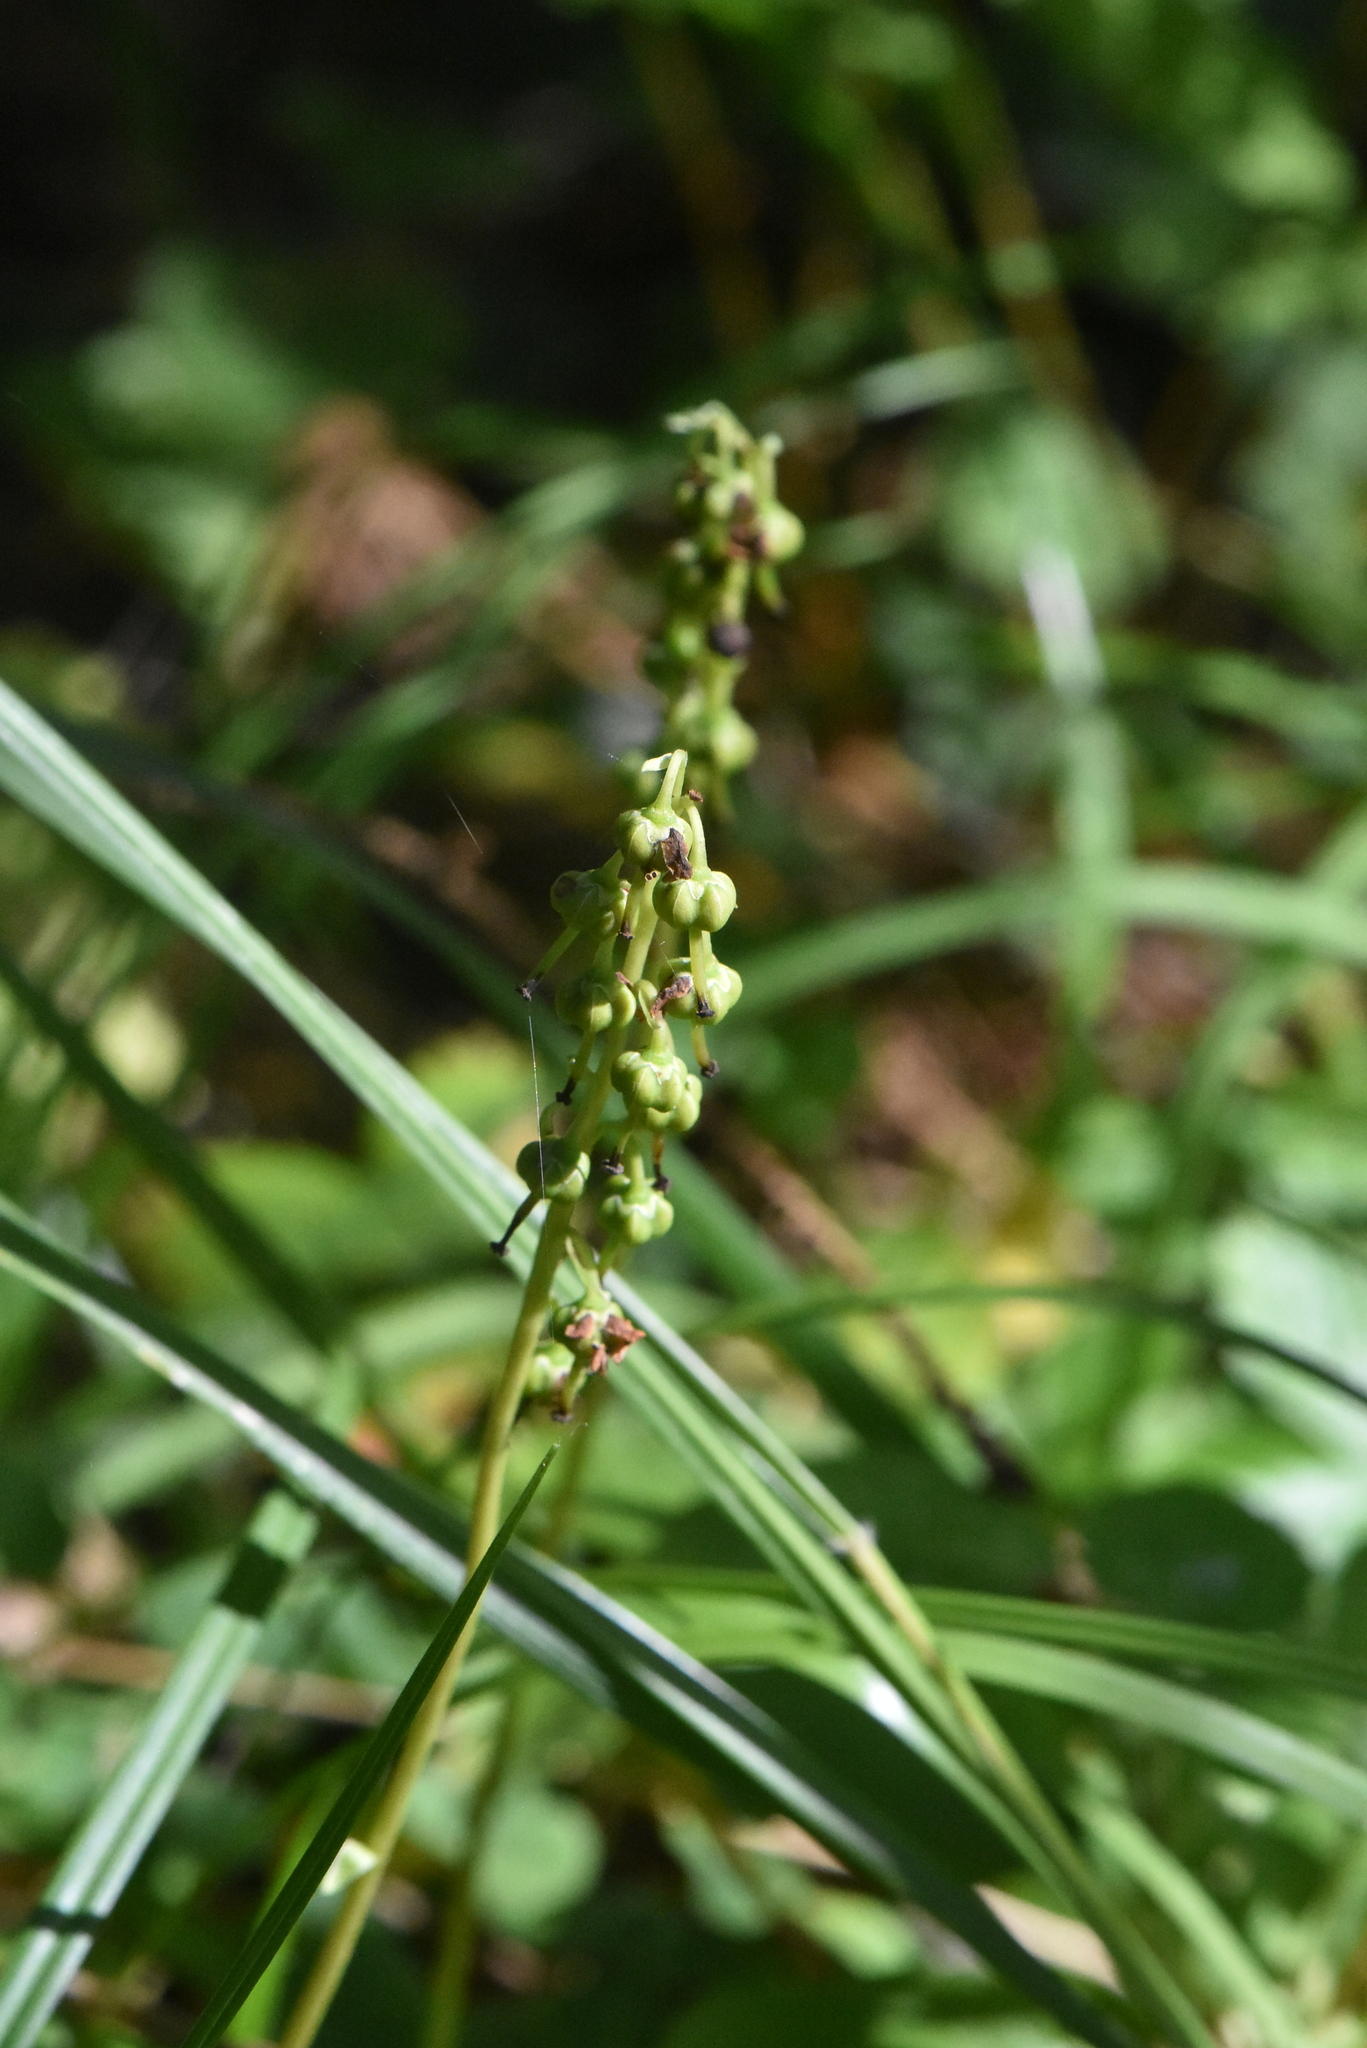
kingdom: Plantae
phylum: Tracheophyta
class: Magnoliopsida
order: Ericales
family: Ericaceae
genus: Orthilia
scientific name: Orthilia secunda
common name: One-sided orthilia
